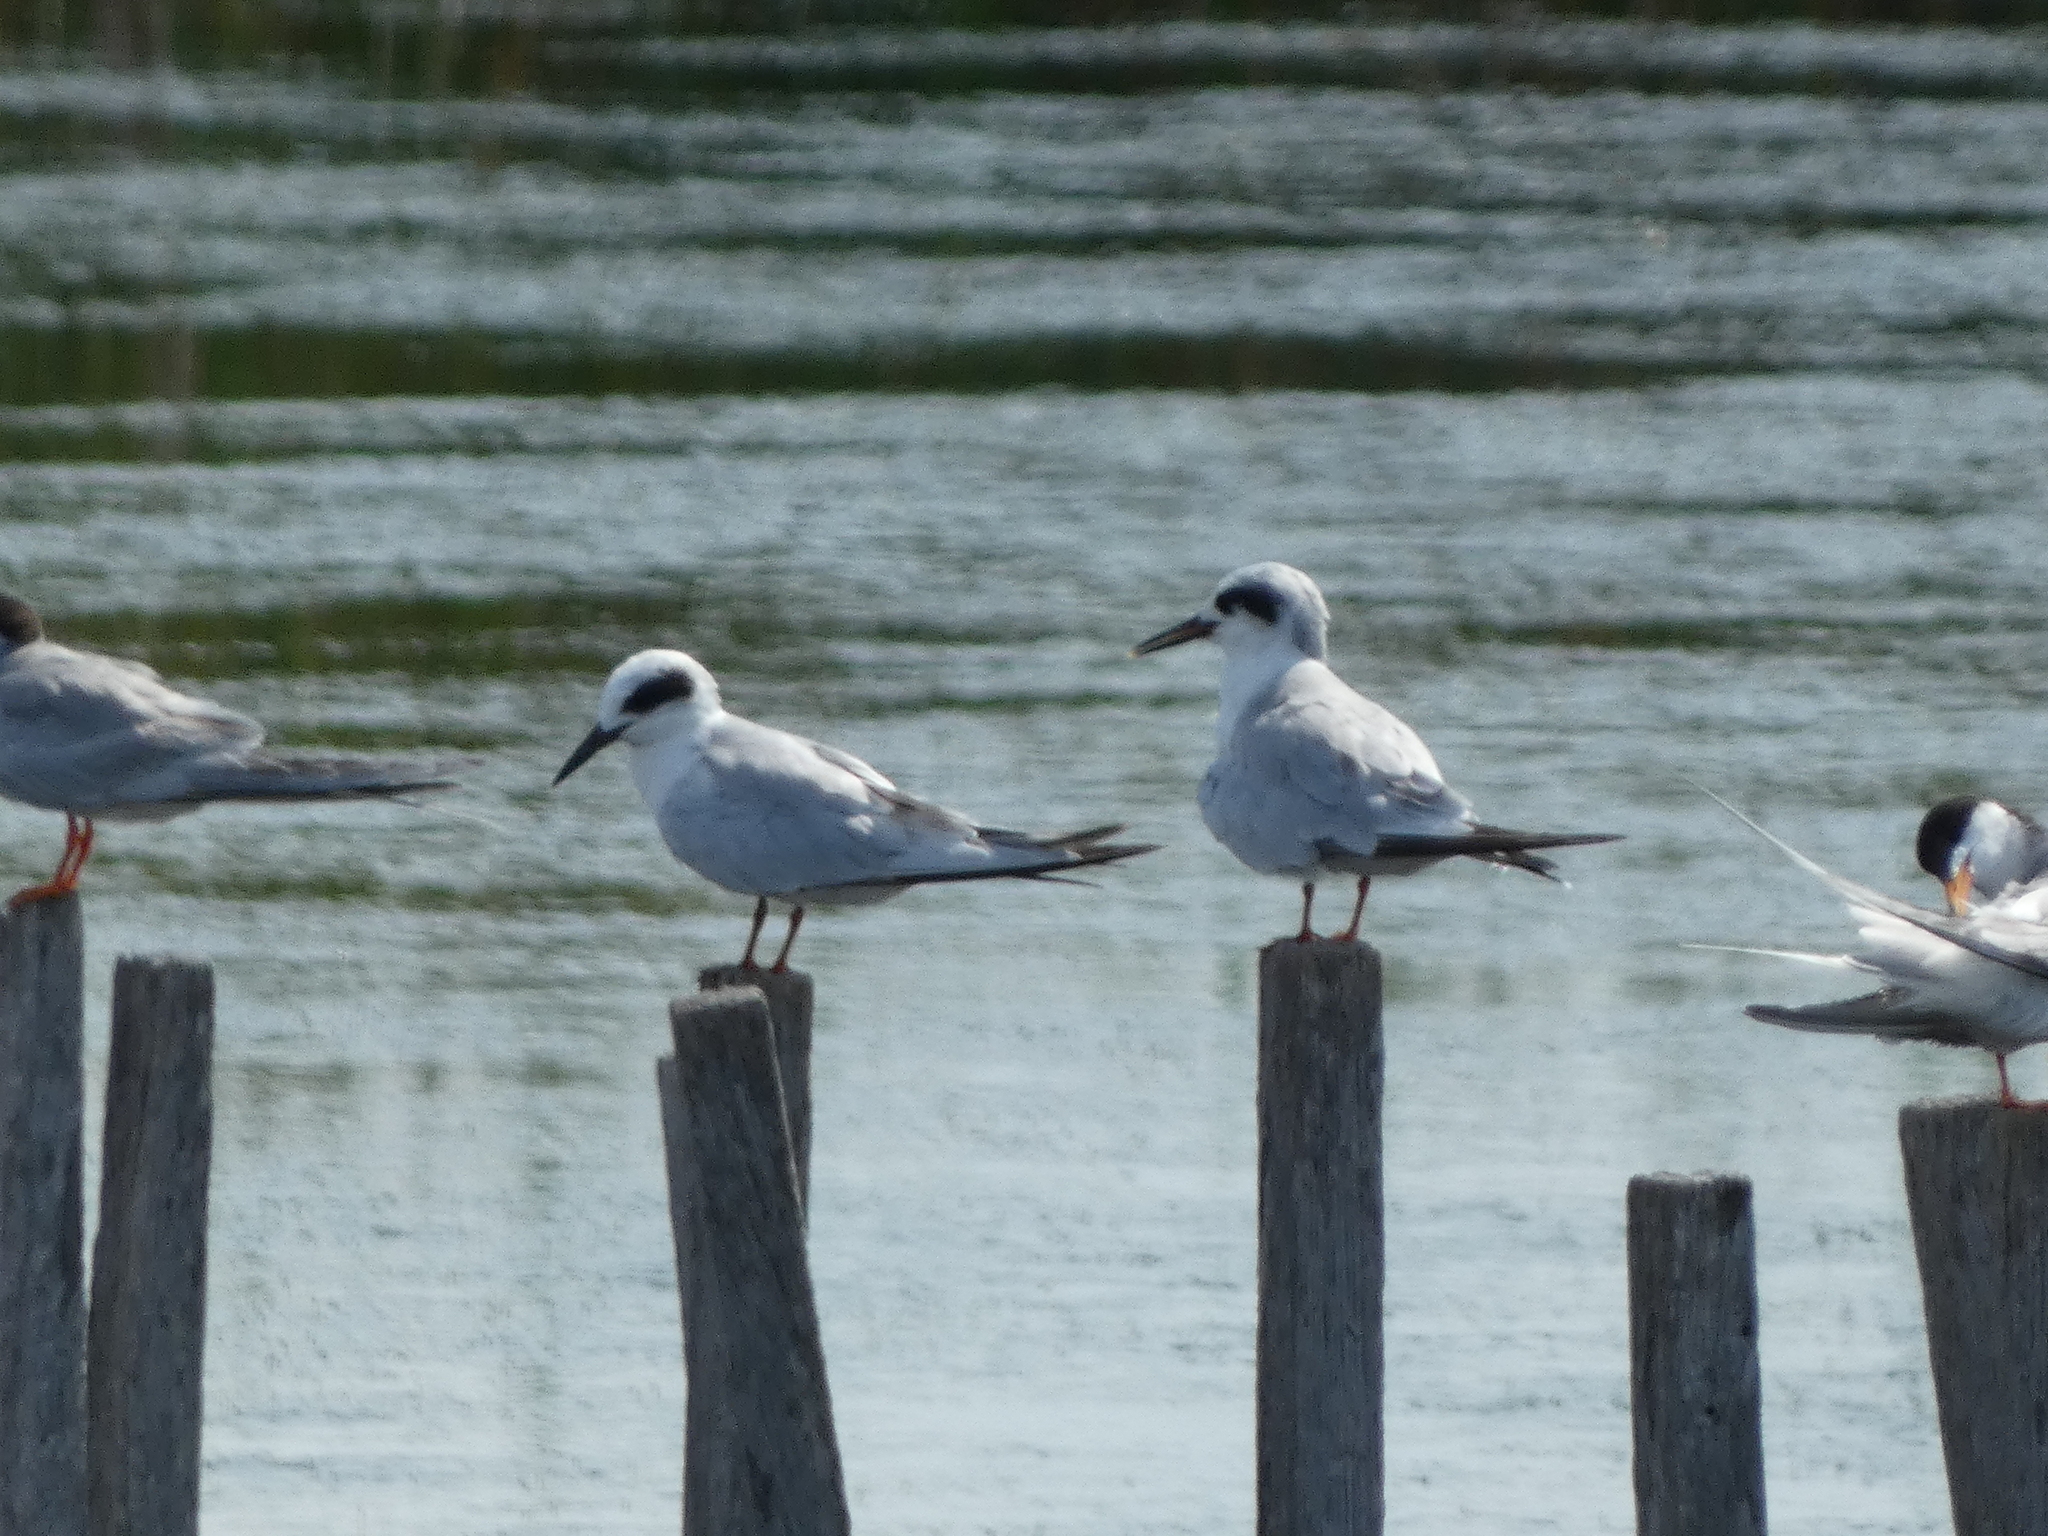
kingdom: Animalia
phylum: Chordata
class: Aves
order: Charadriiformes
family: Laridae
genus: Sterna
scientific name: Sterna forsteri
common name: Forster's tern
